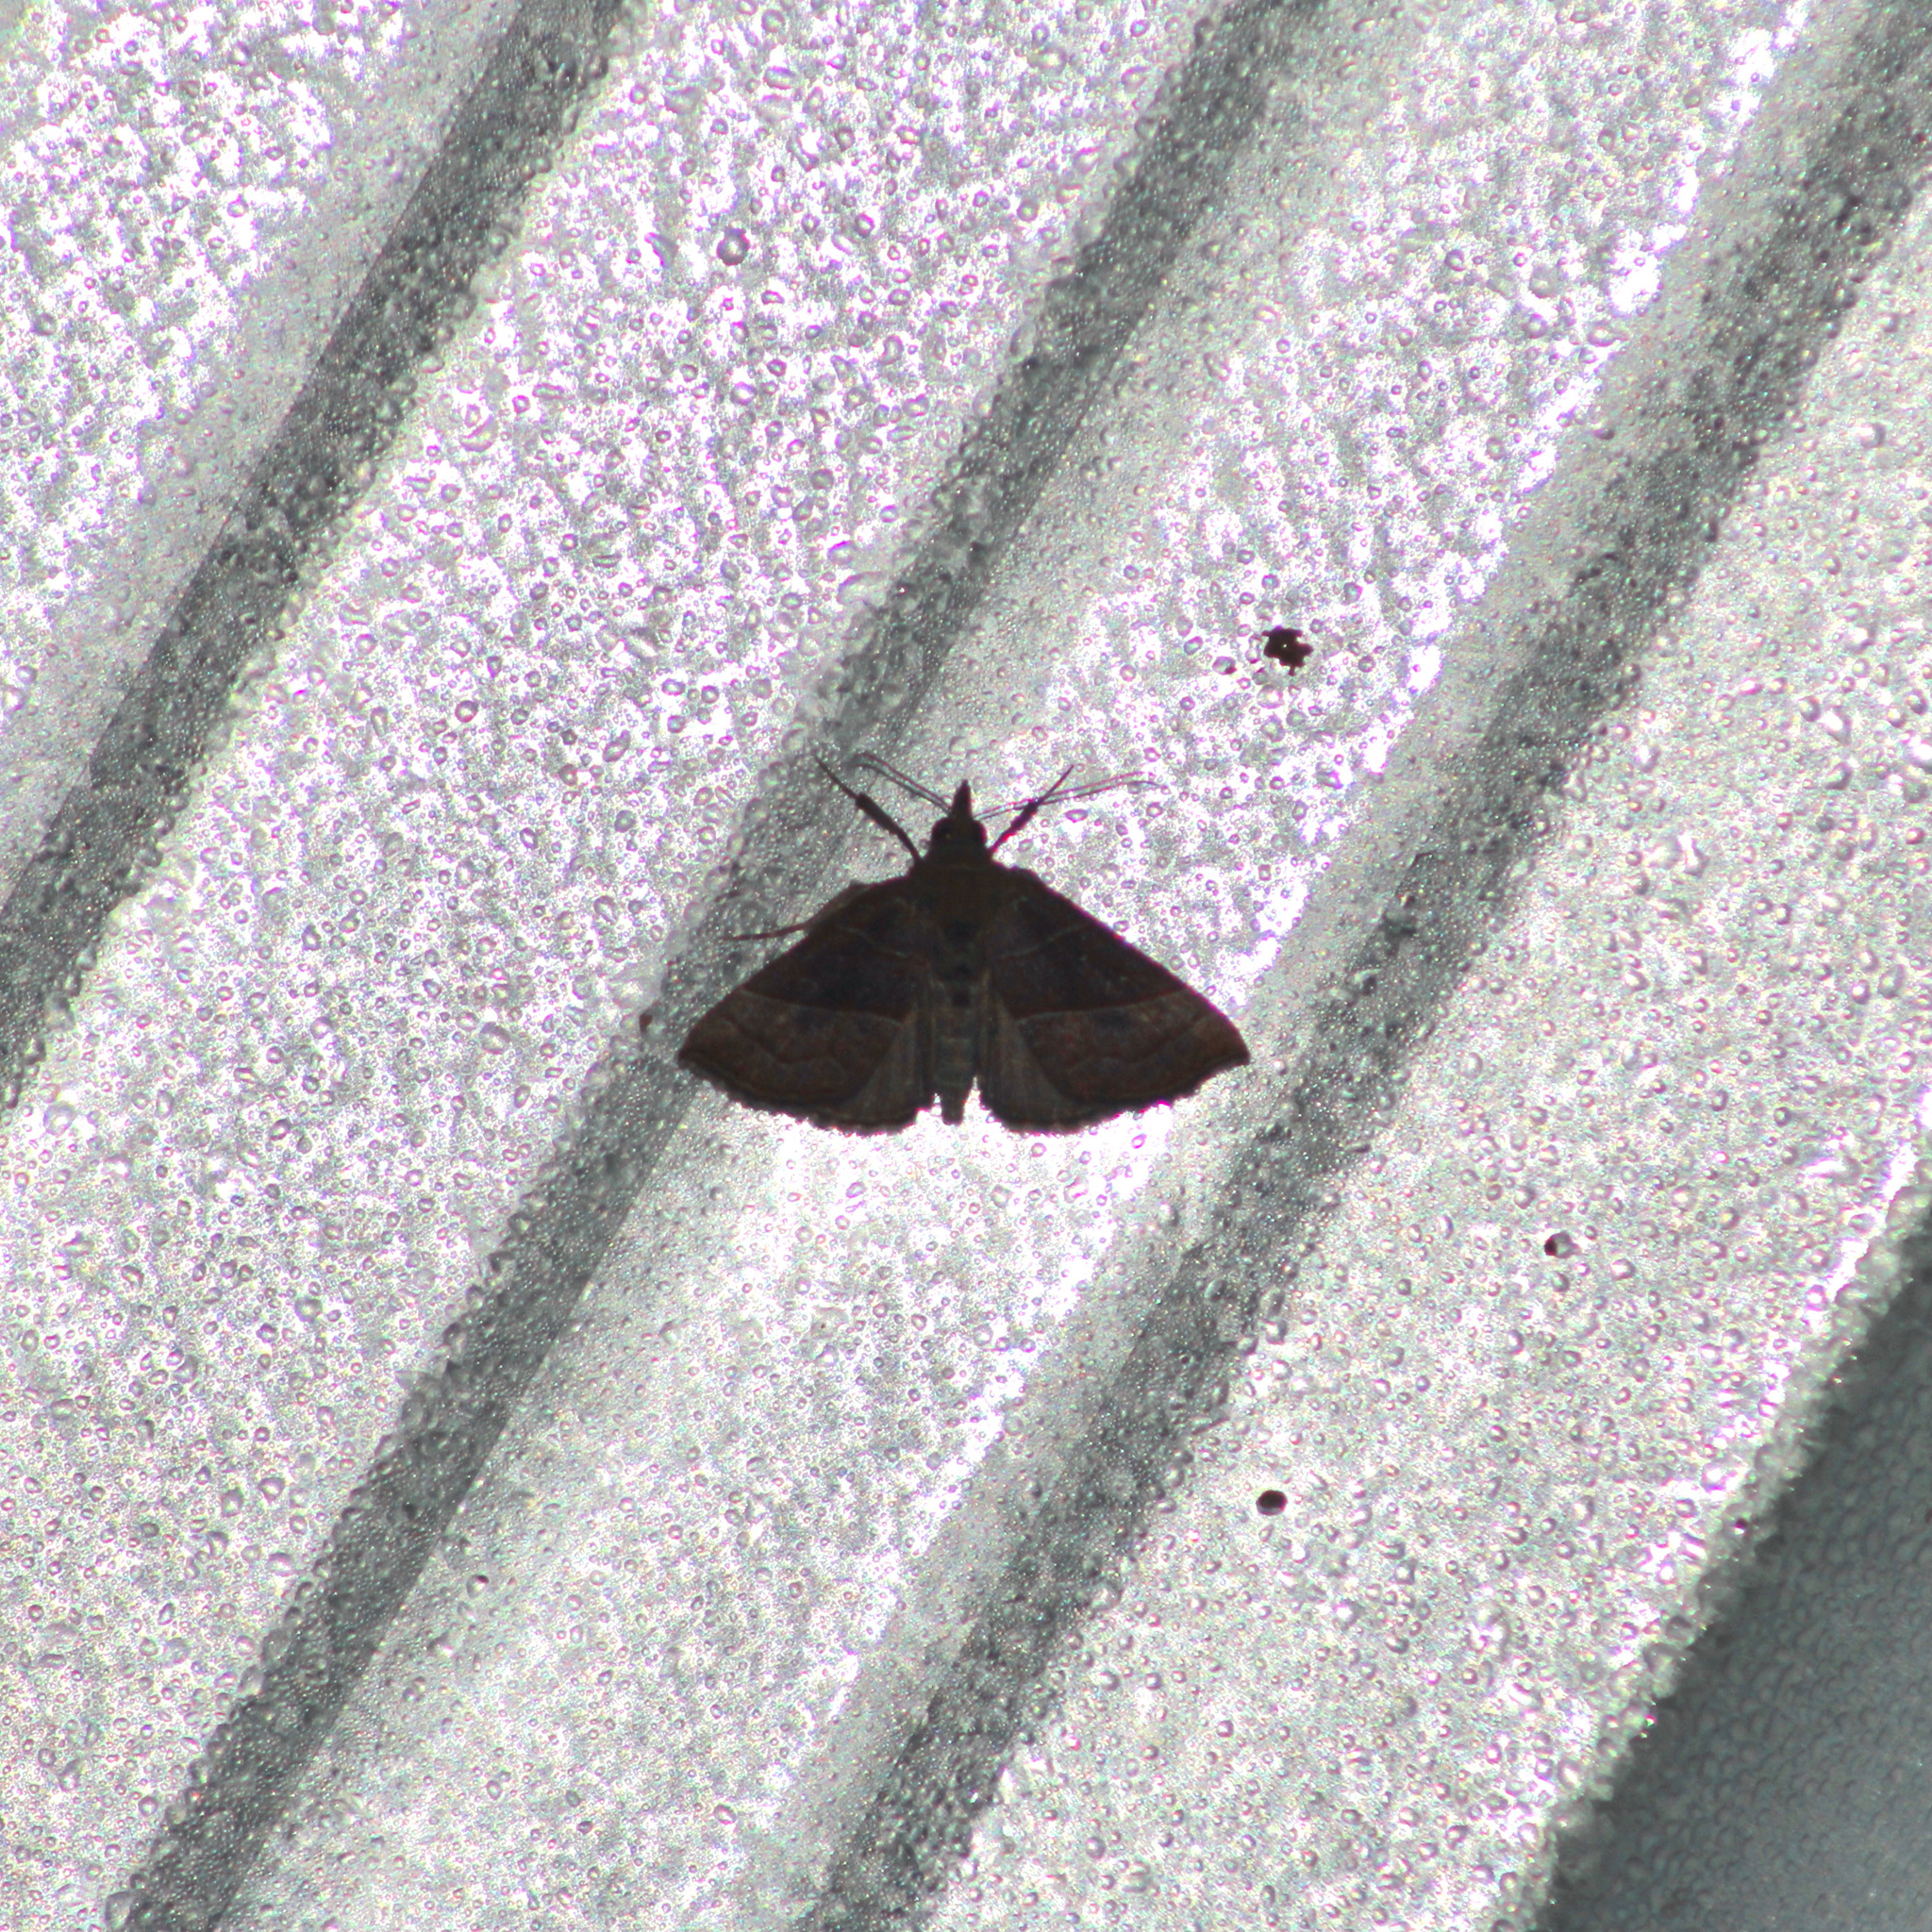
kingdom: Animalia
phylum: Arthropoda
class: Insecta
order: Lepidoptera
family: Erebidae
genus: Hypena
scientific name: Hypena
